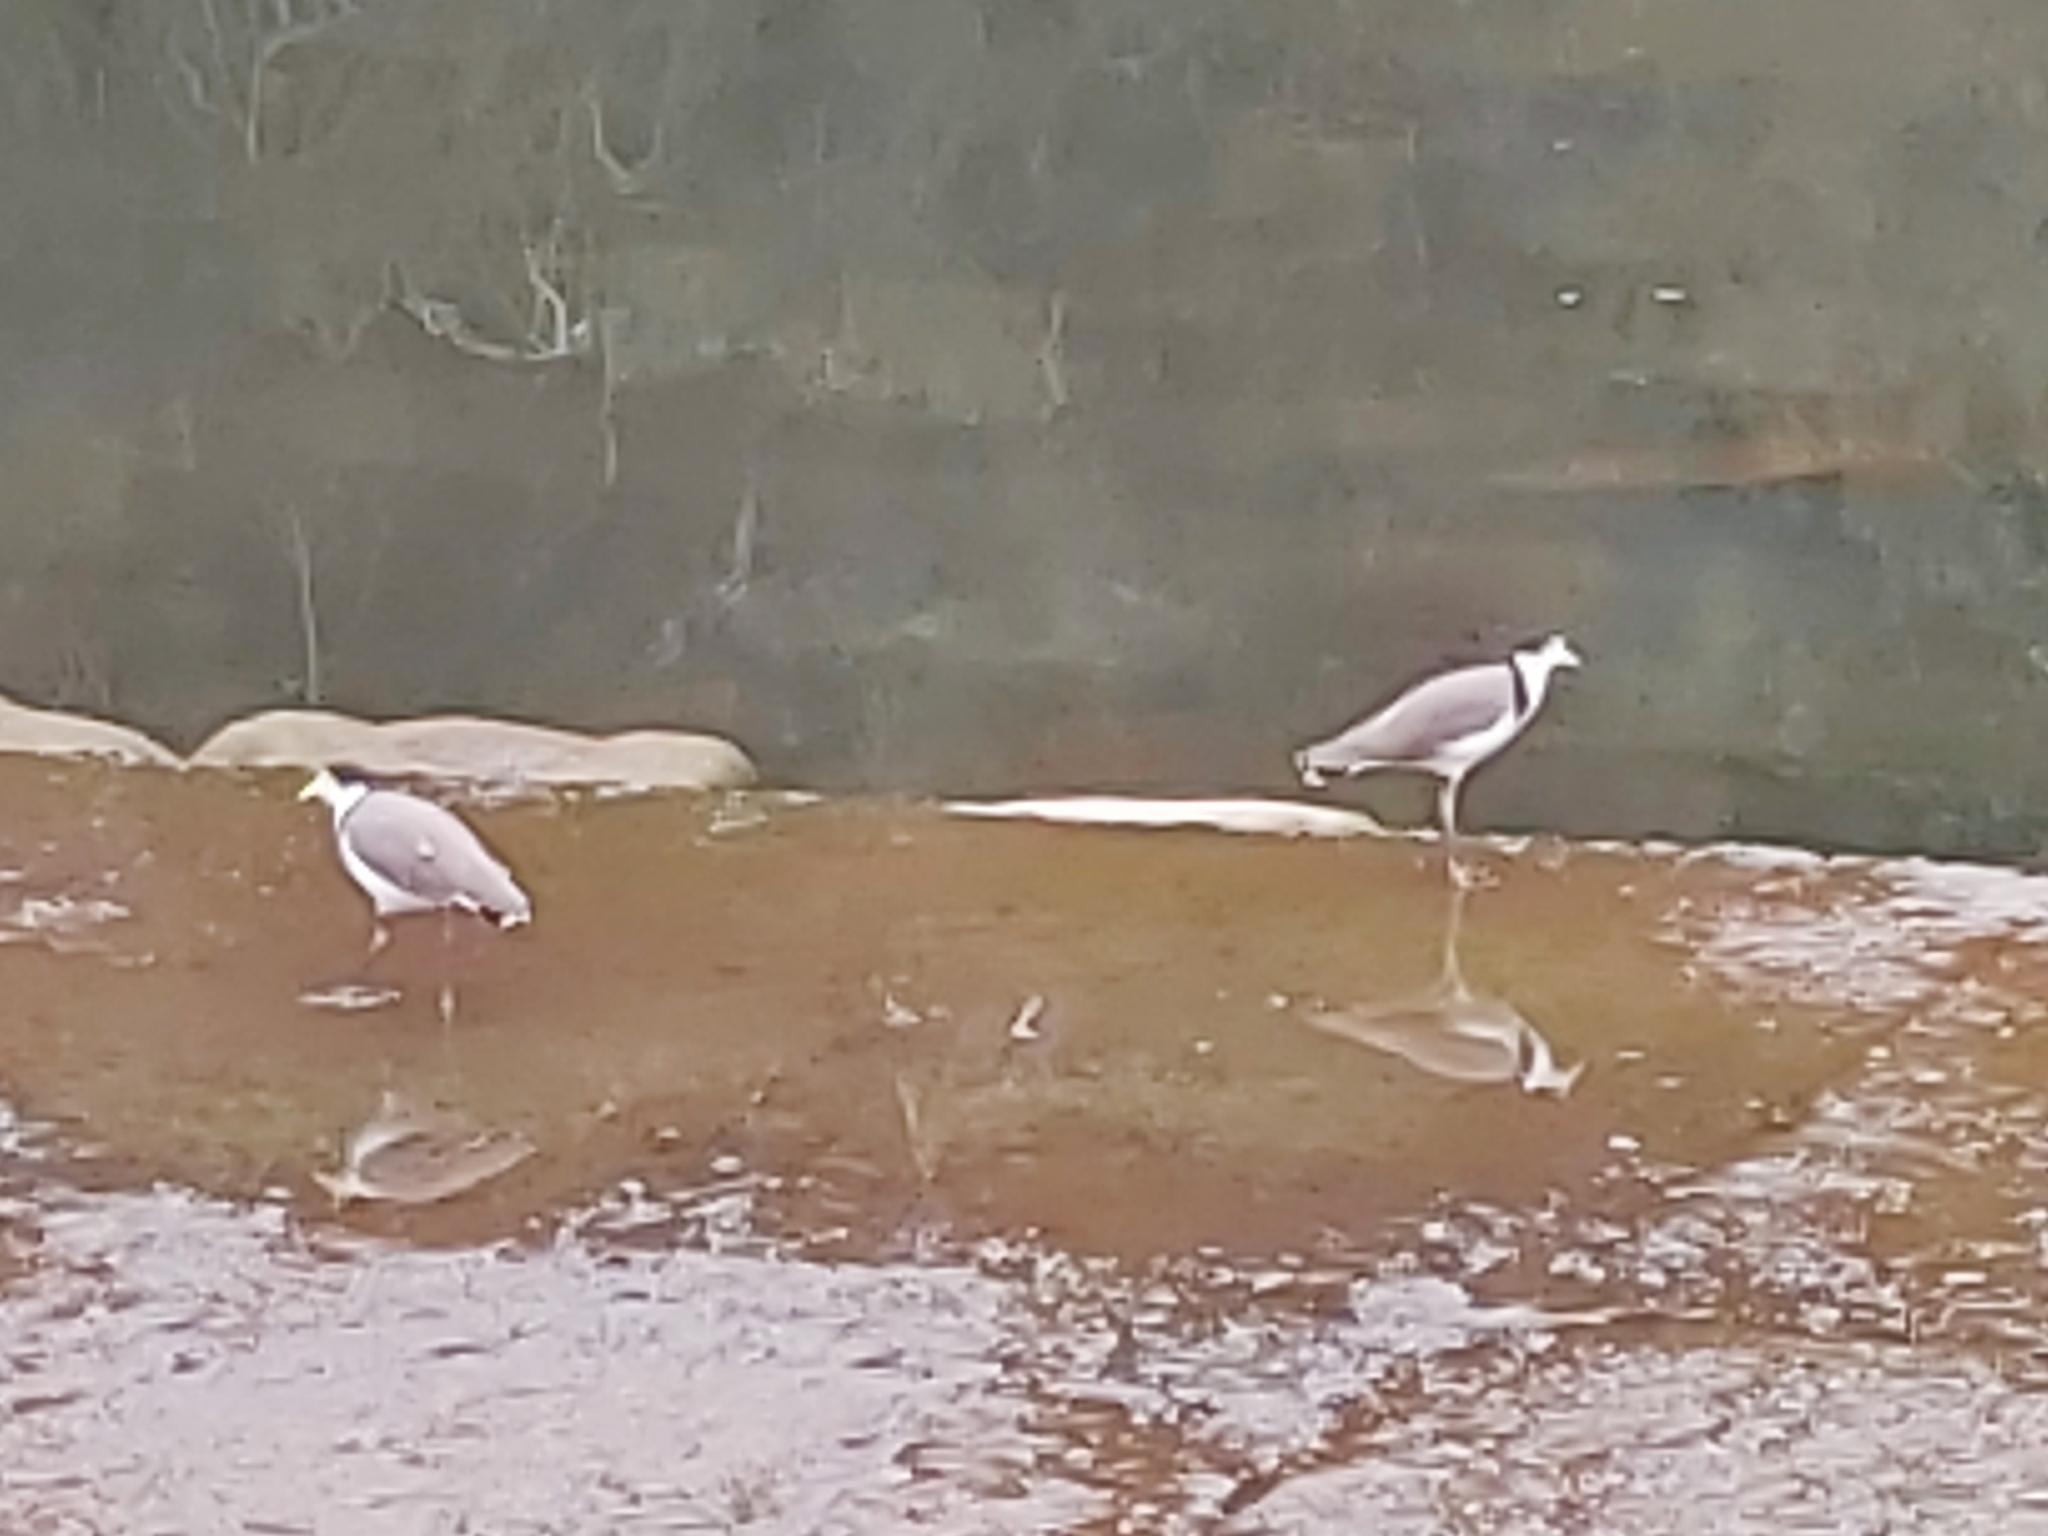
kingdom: Animalia
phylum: Chordata
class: Aves
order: Charadriiformes
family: Charadriidae
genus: Vanellus
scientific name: Vanellus miles
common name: Masked lapwing
